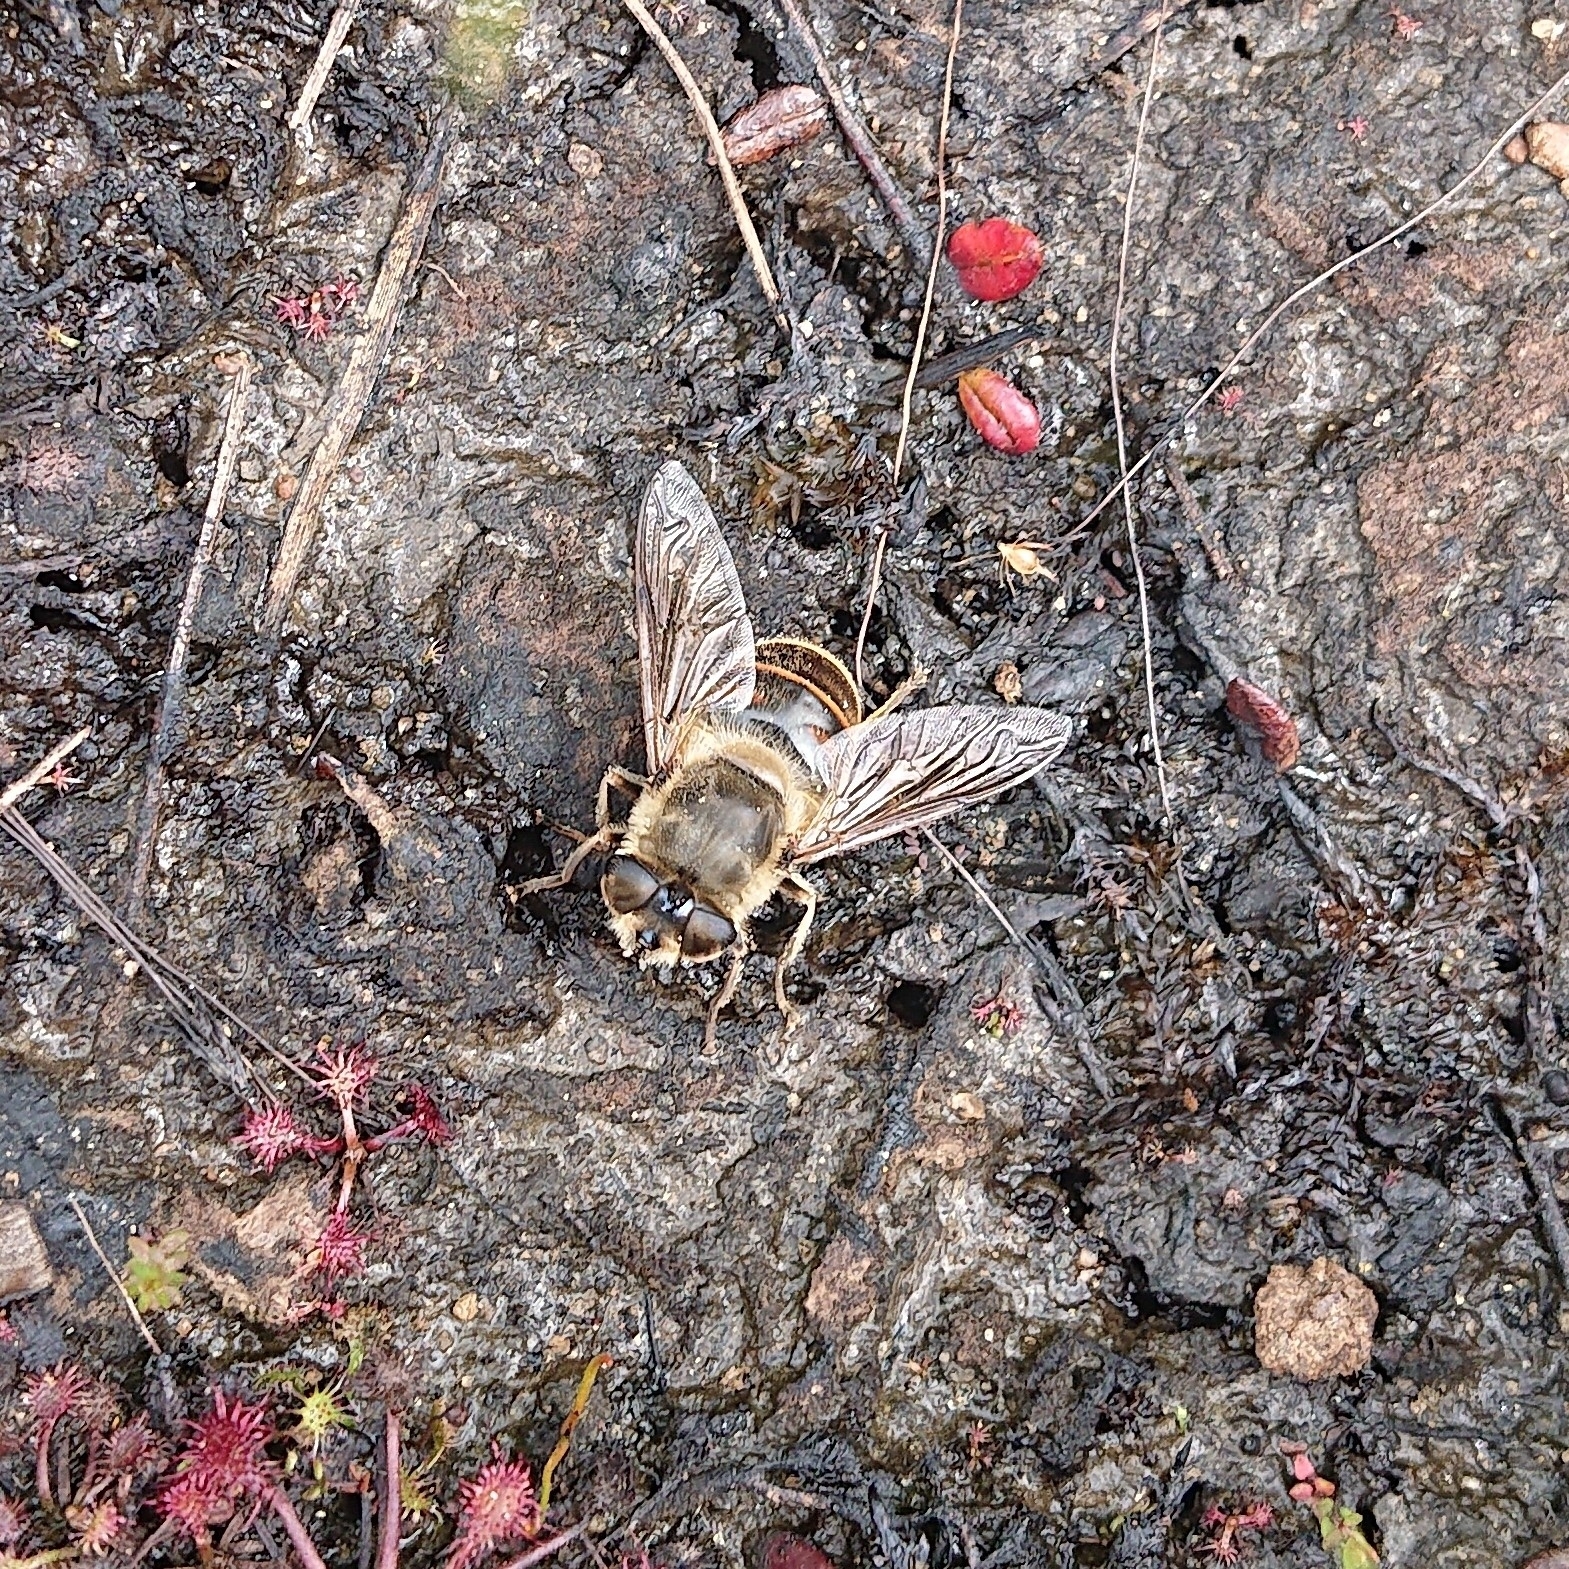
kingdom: Animalia
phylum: Arthropoda
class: Insecta
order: Diptera
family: Syrphidae
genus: Eristalis
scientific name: Eristalis tenax
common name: Drone fly
